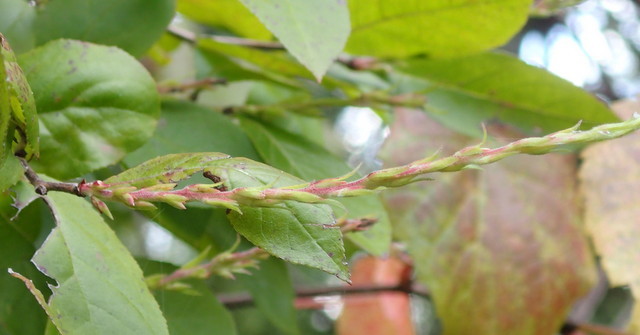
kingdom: Plantae
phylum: Tracheophyta
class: Magnoliopsida
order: Ericales
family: Ericaceae
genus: Eubotrys
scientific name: Eubotrys racemosa
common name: Fetterbush
